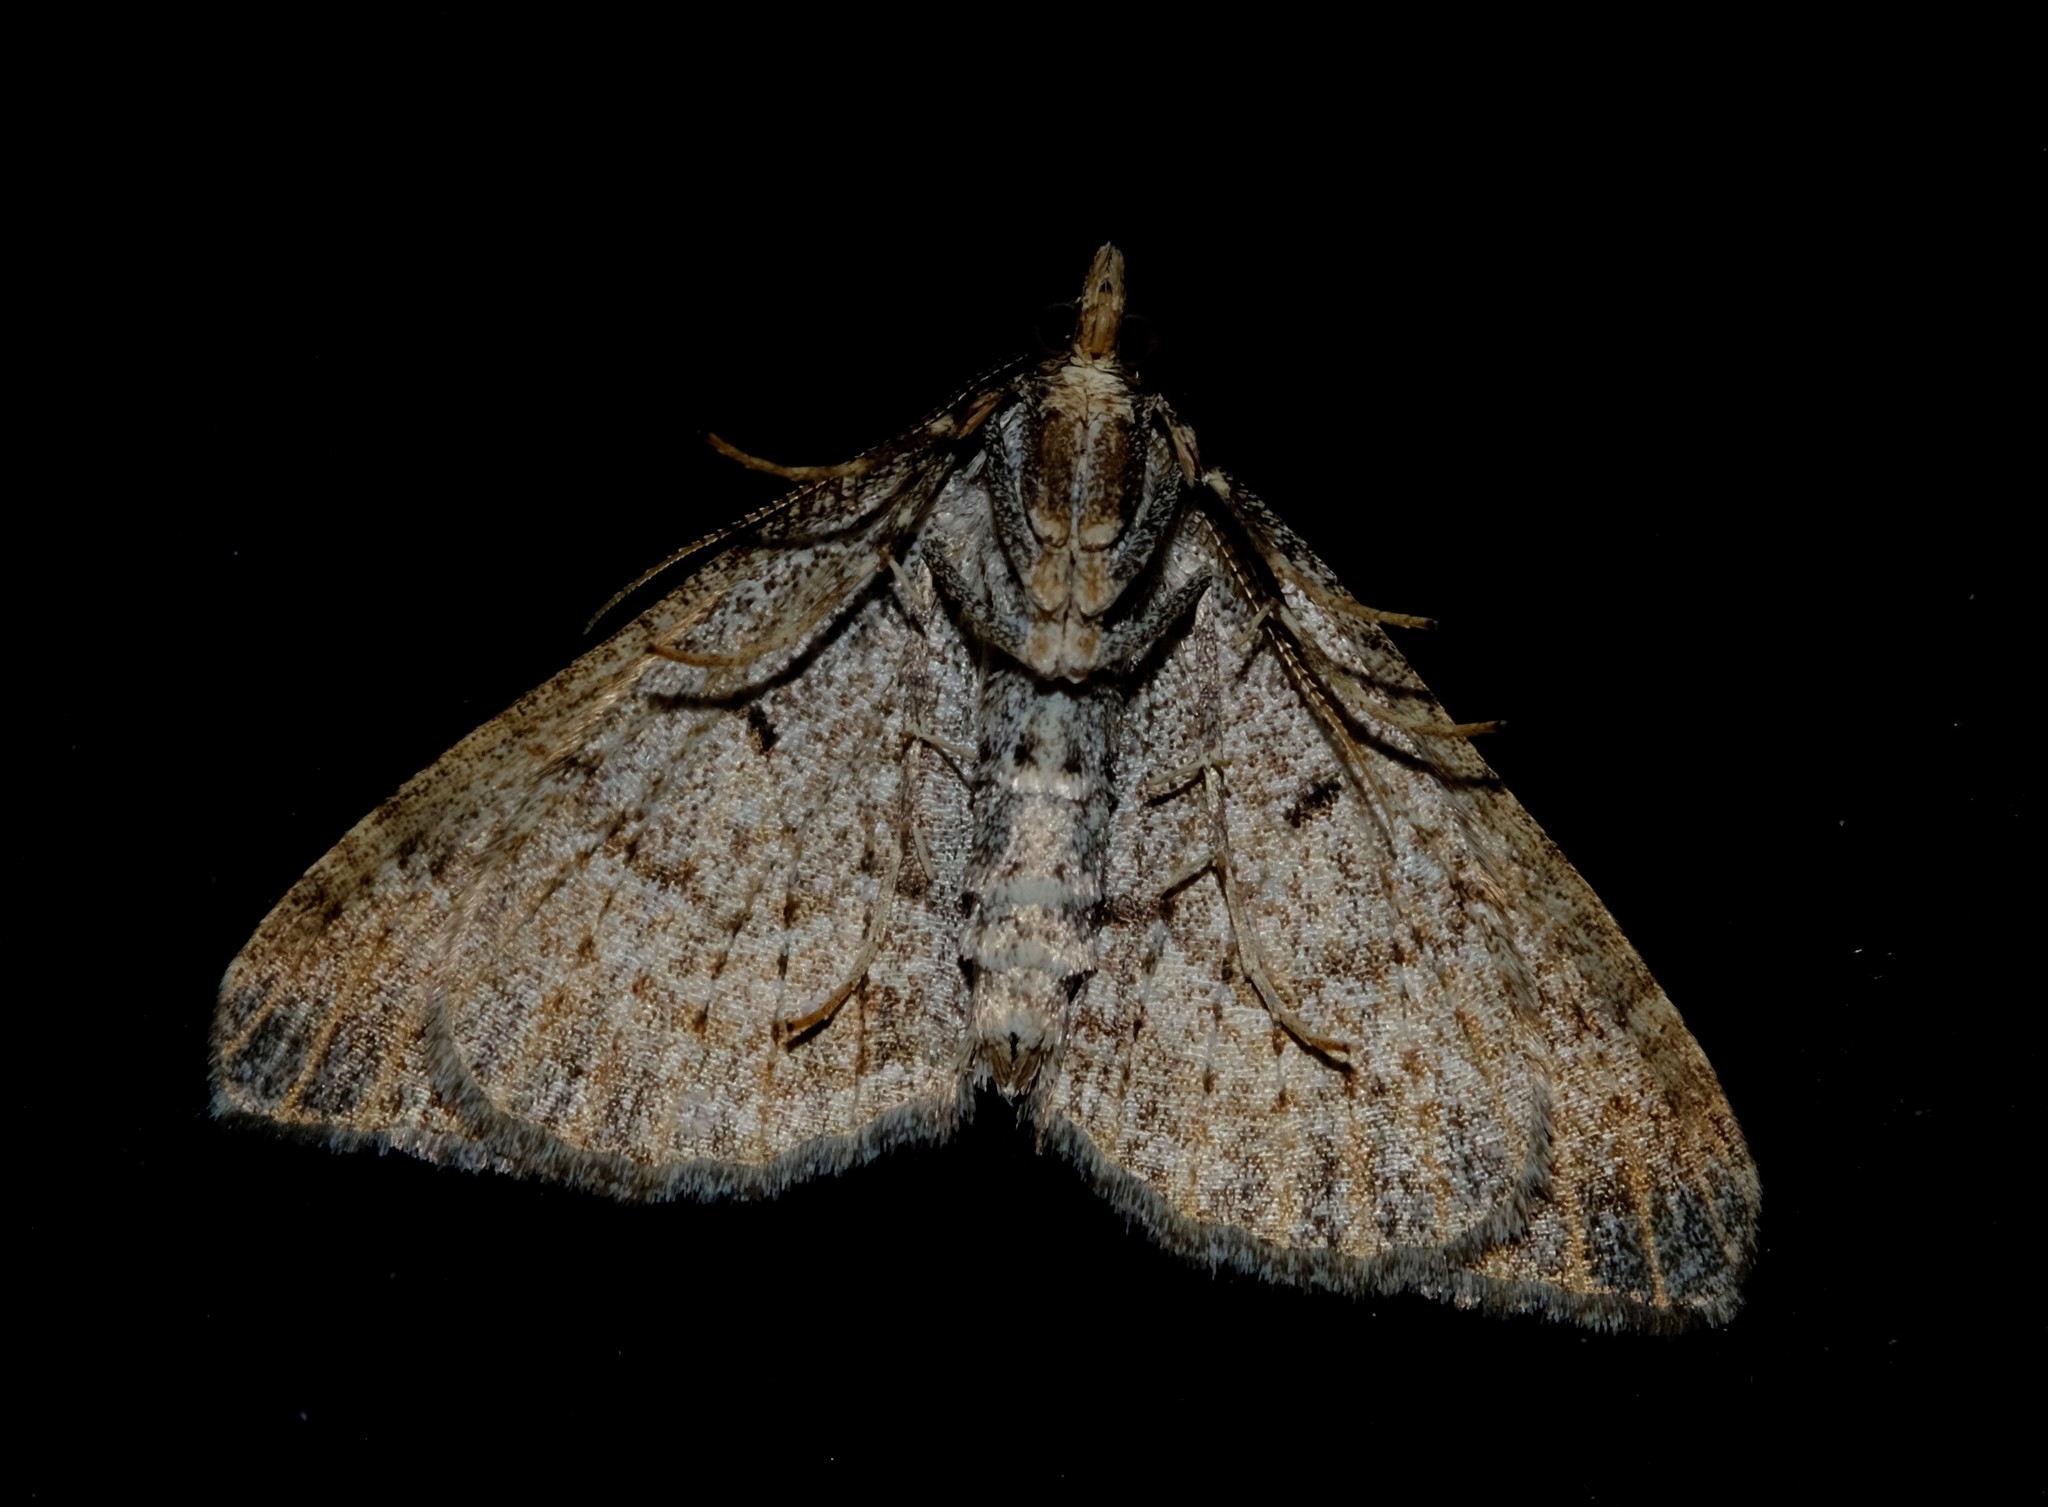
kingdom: Animalia
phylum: Arthropoda
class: Insecta
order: Lepidoptera
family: Geometridae
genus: Epyaxa
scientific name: Epyaxa agelasta
